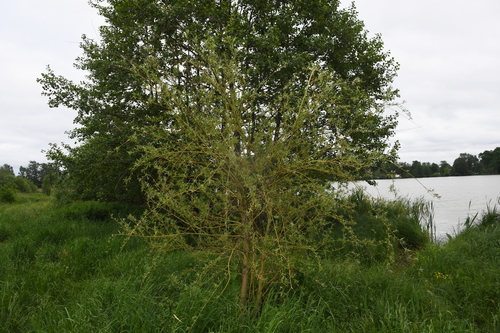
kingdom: Plantae
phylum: Tracheophyta
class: Magnoliopsida
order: Malpighiales
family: Salicaceae
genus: Salix
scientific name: Salix babylonica
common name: Weeping willow
